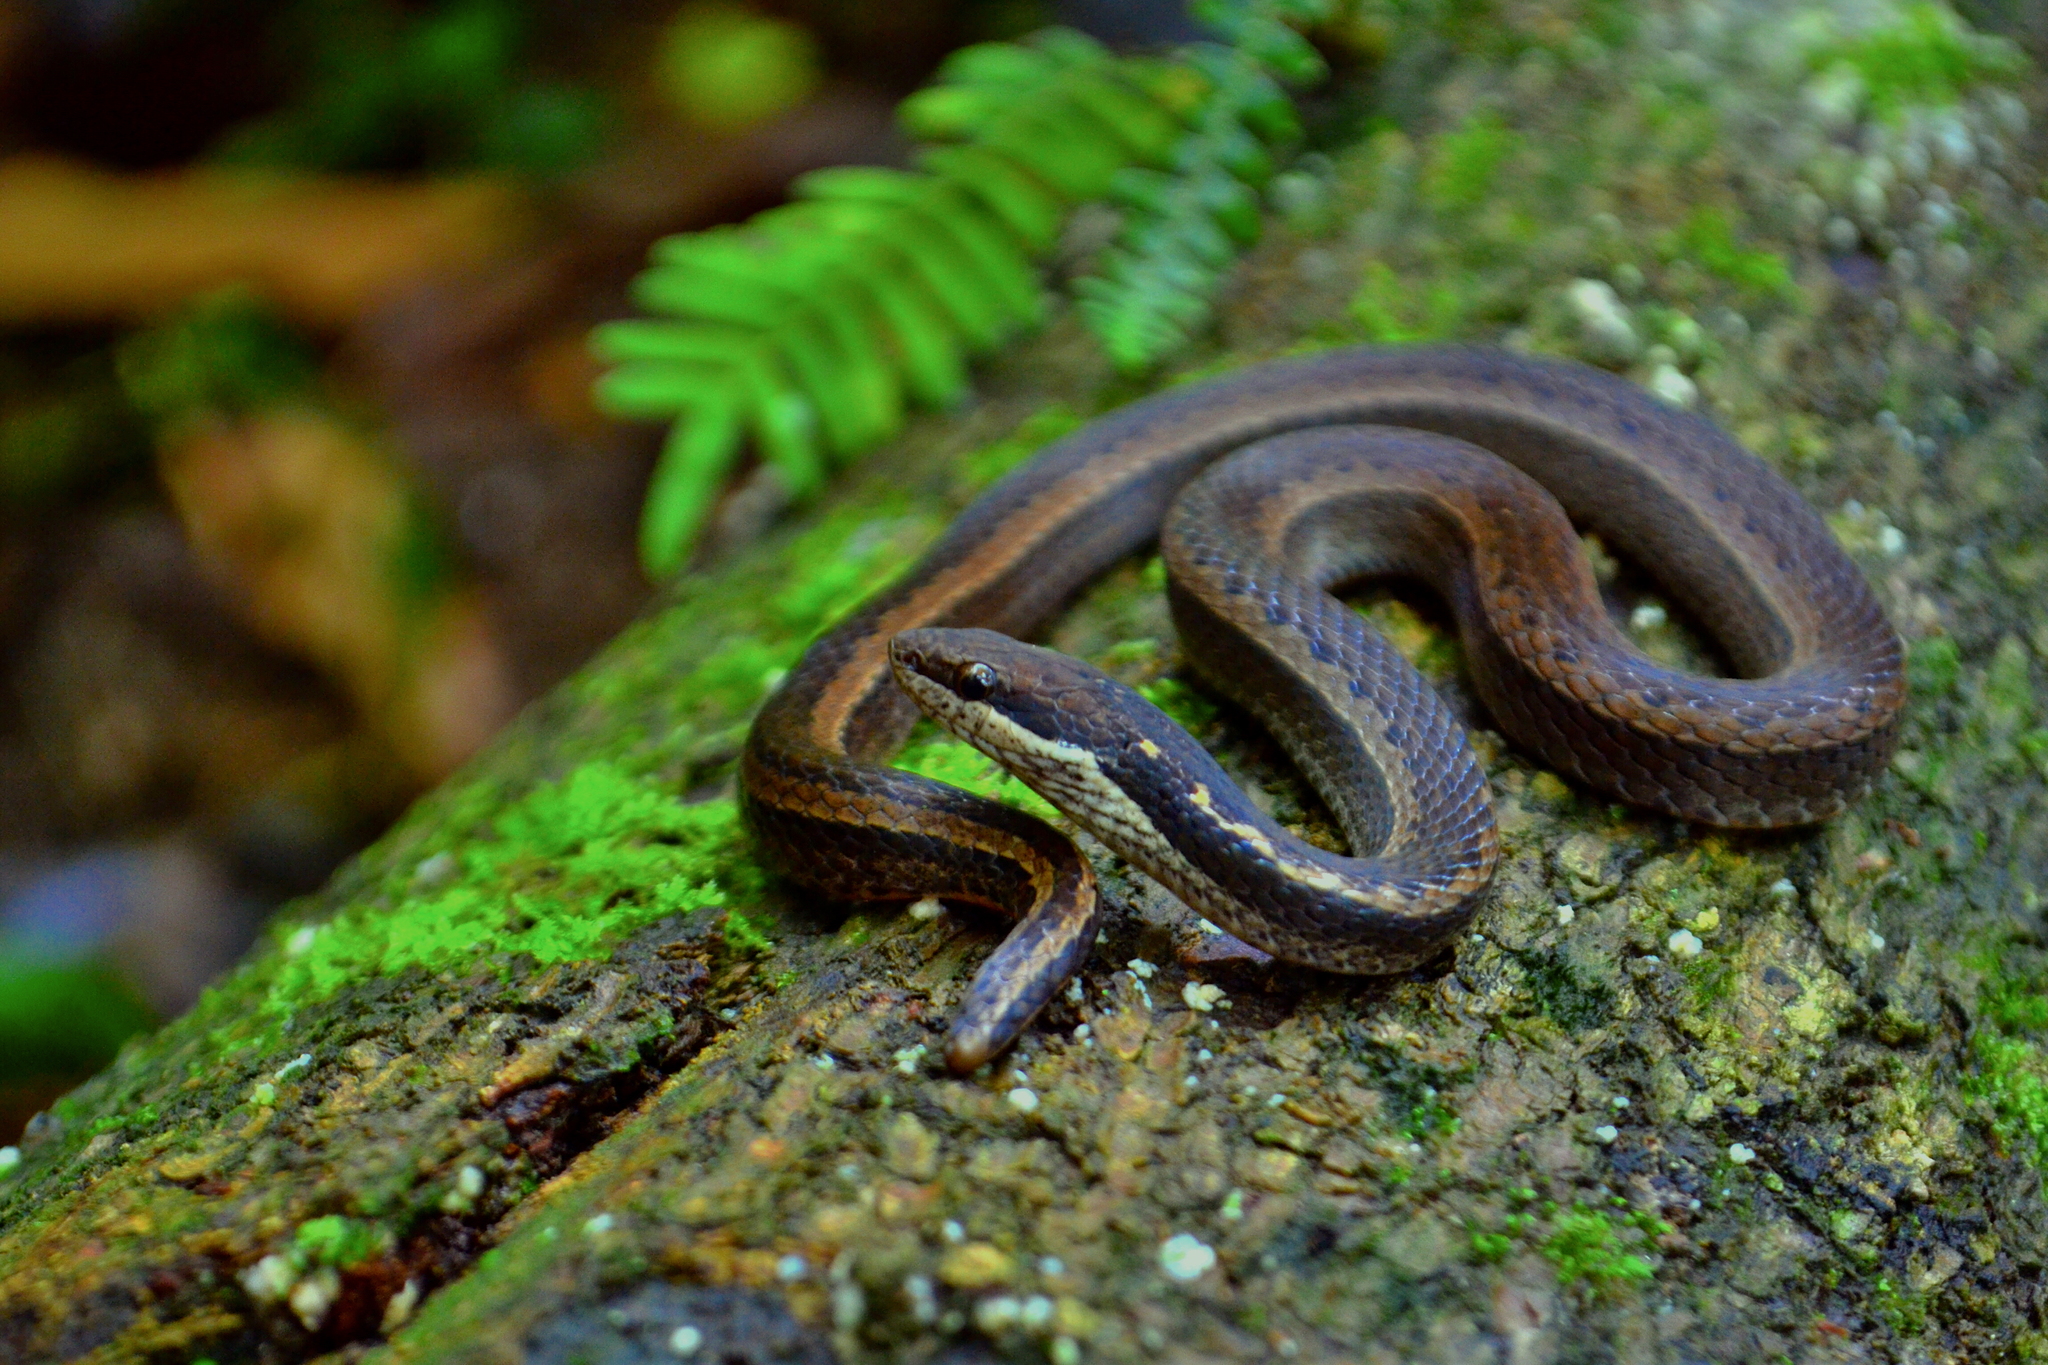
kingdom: Animalia
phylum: Chordata
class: Squamata
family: Colubridae
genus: Coniophanes
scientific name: Coniophanes fissidens
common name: Yellowbelly snake
